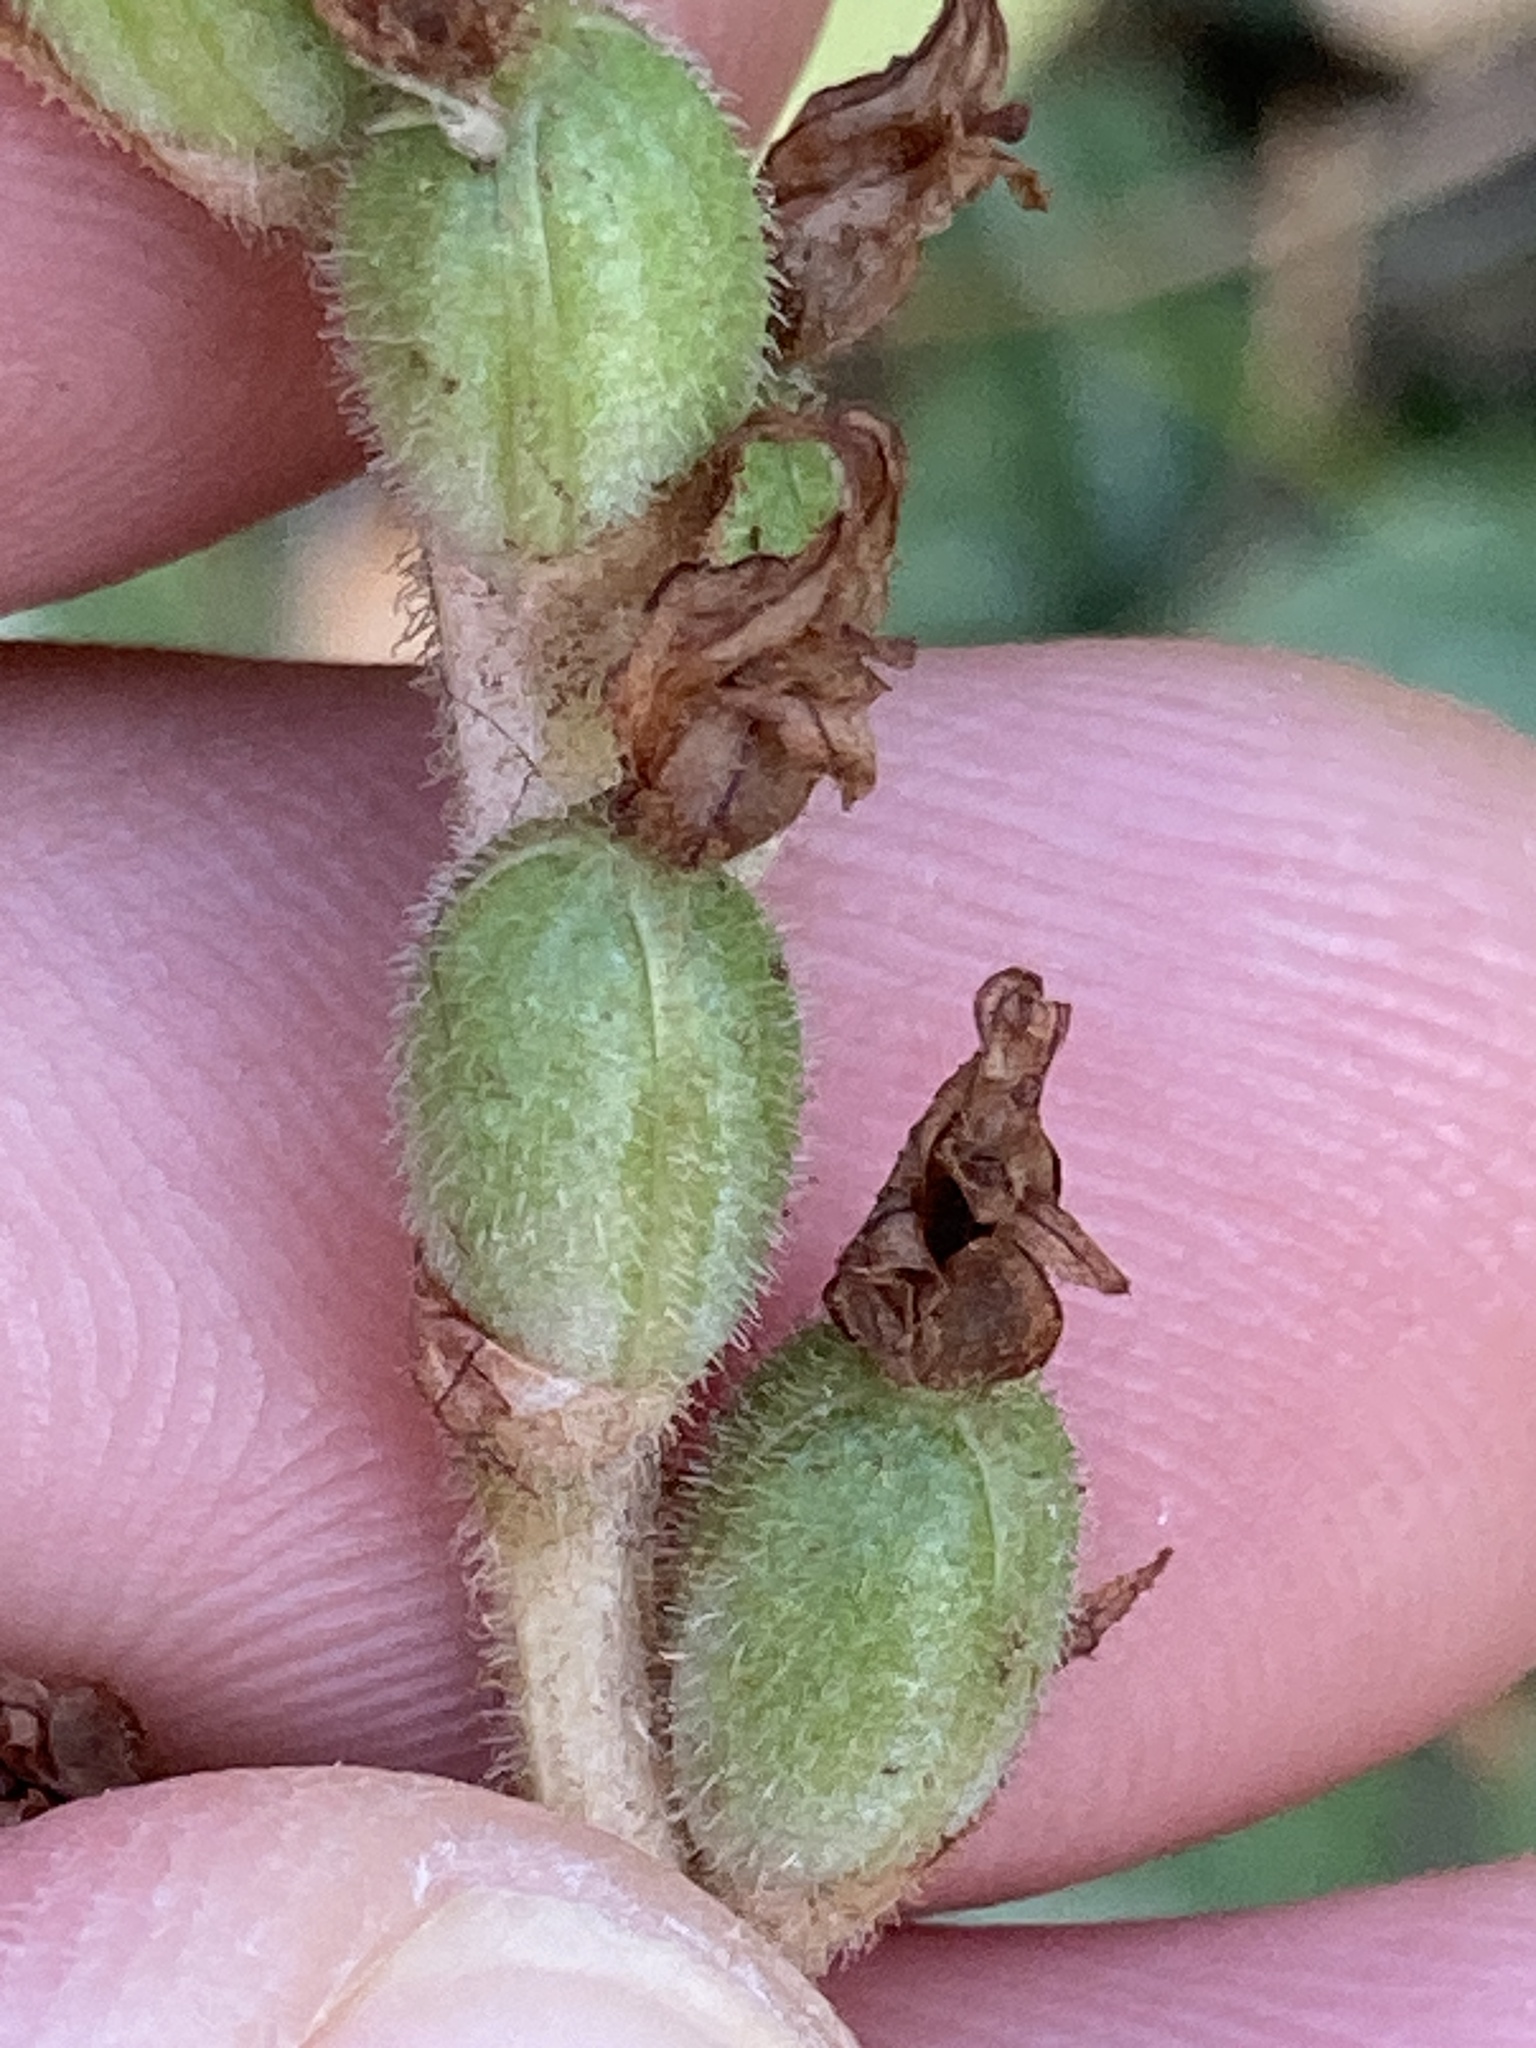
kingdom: Plantae
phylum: Tracheophyta
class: Liliopsida
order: Asparagales
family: Orchidaceae
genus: Goodyera
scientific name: Goodyera oblongifolia
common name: Giant rattlesnake-plantain
